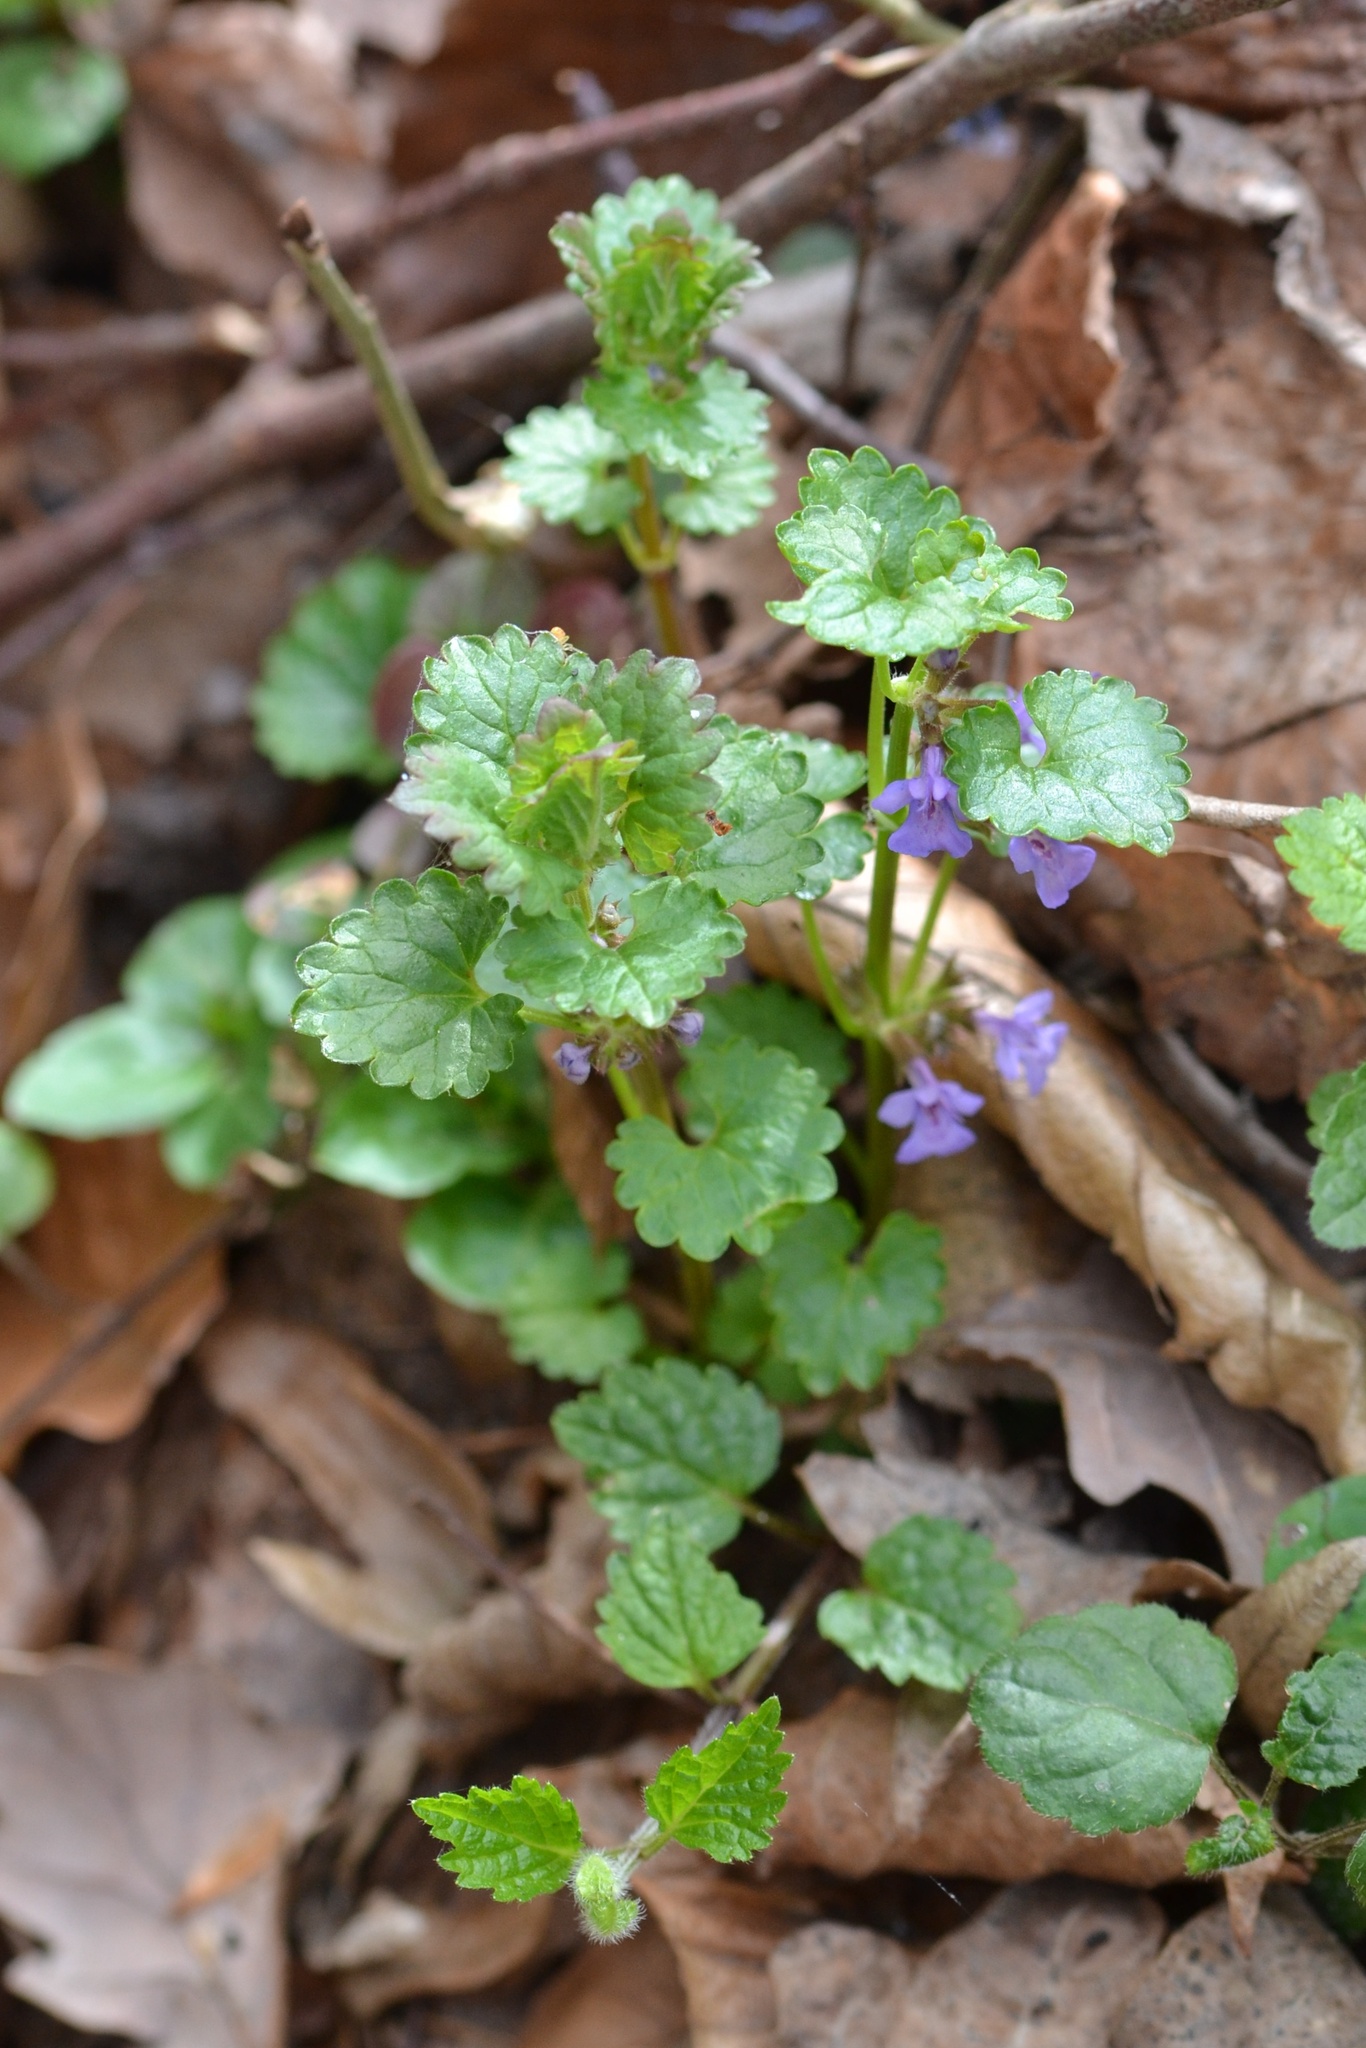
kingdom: Plantae
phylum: Tracheophyta
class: Magnoliopsida
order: Lamiales
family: Lamiaceae
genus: Glechoma
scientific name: Glechoma hederacea
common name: Ground ivy
